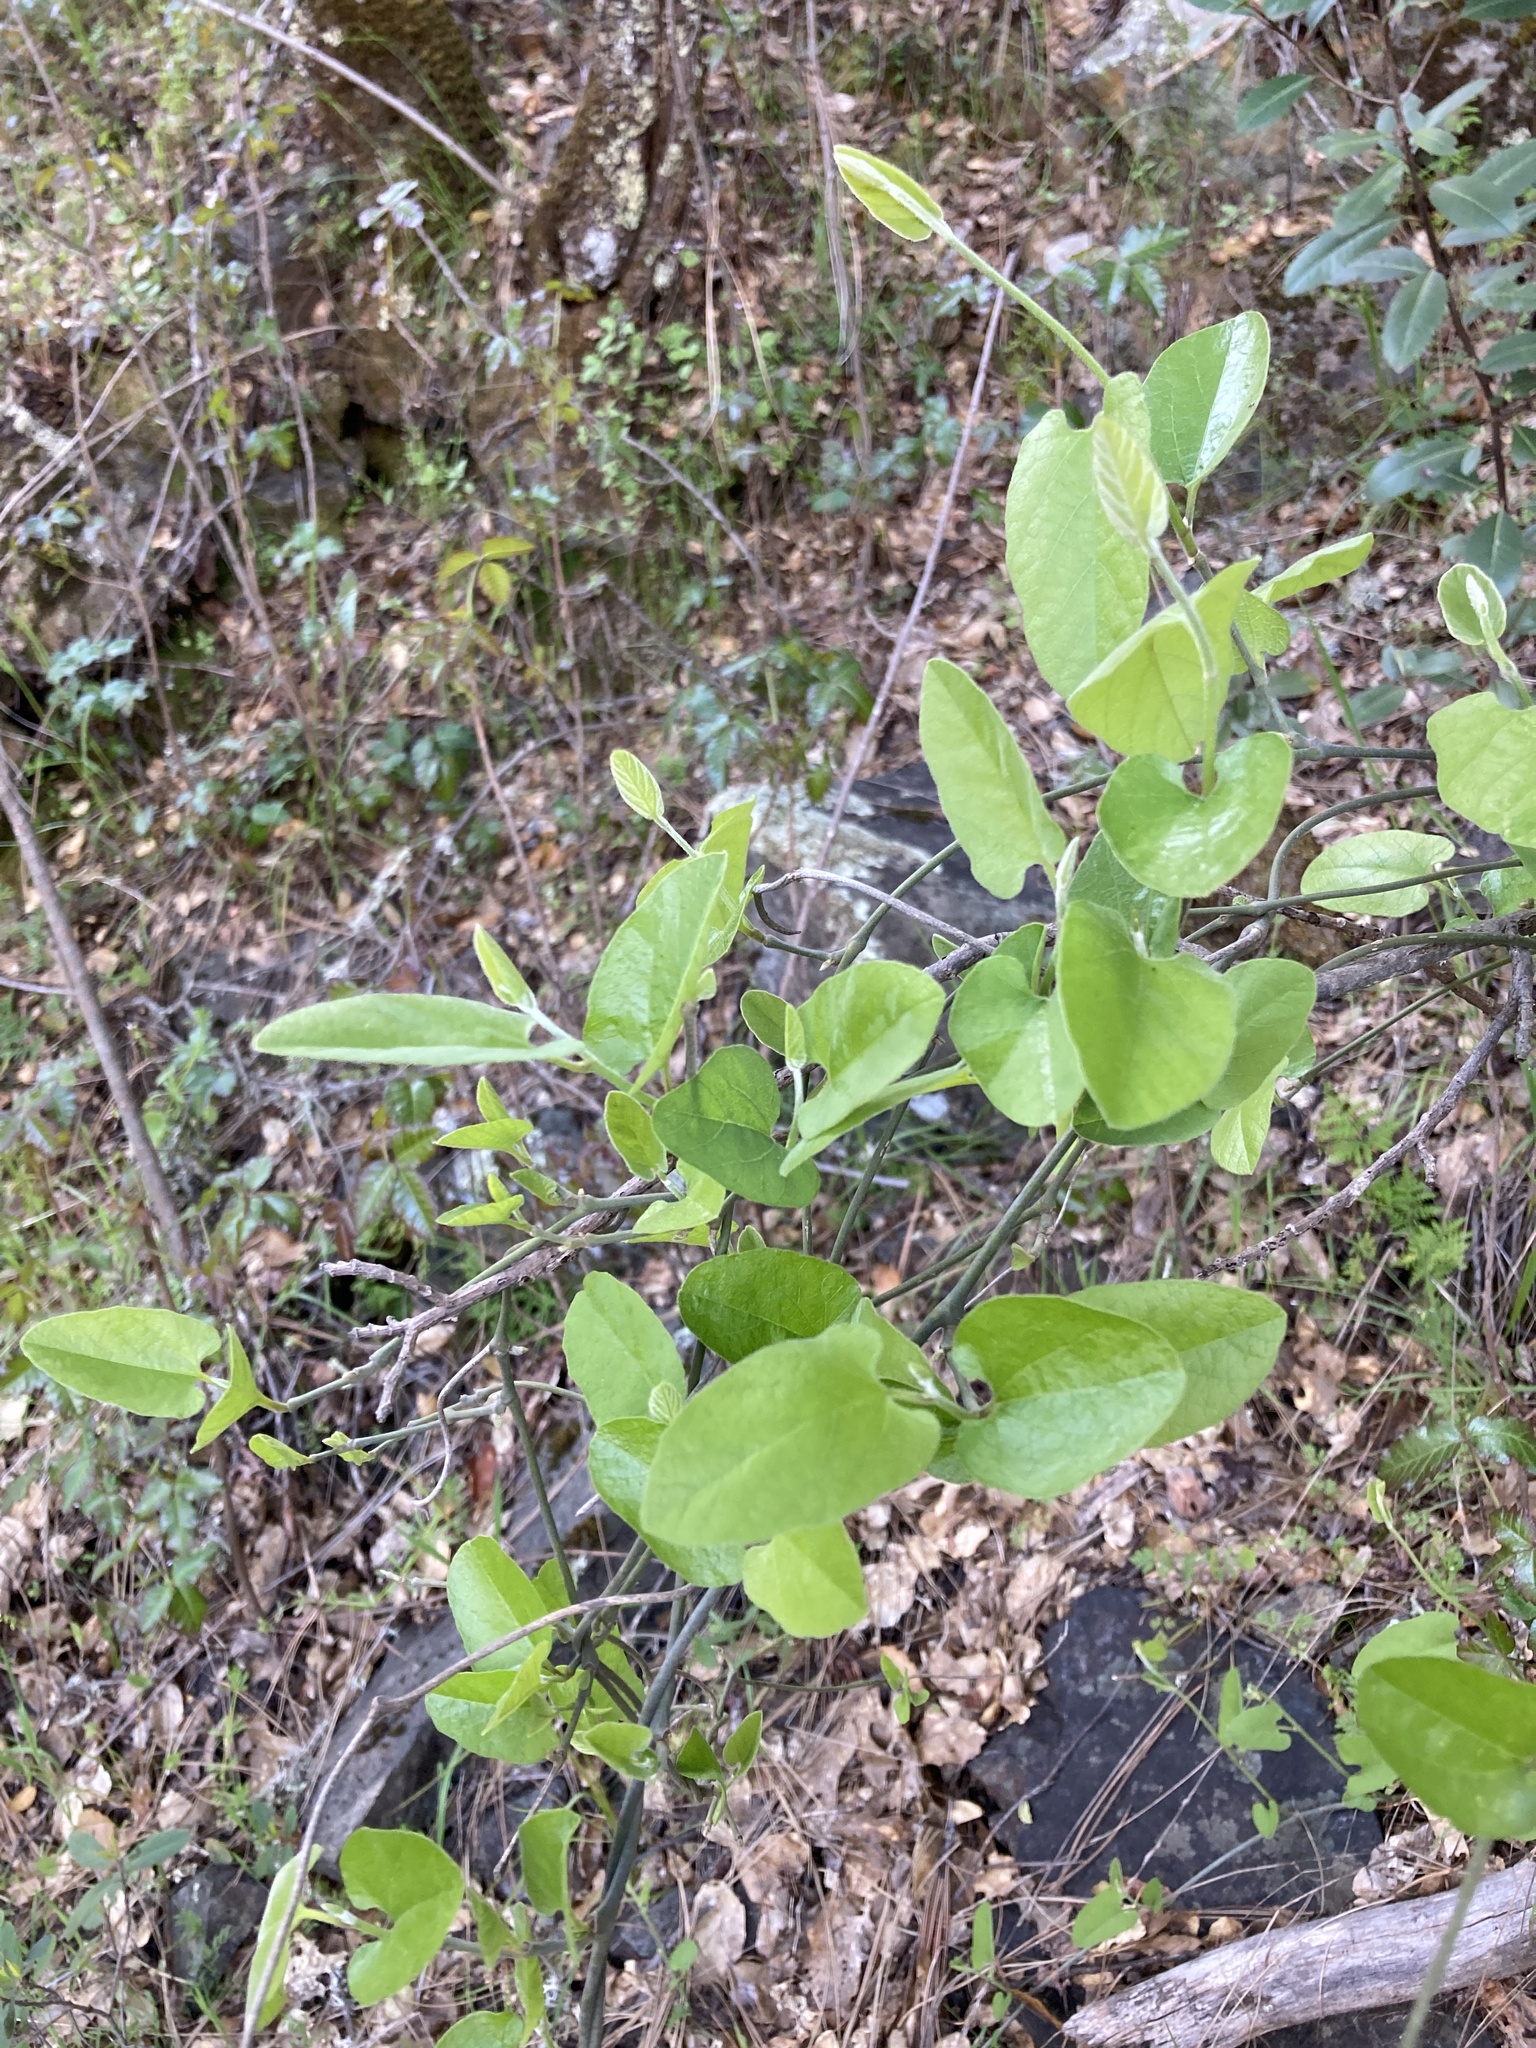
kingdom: Plantae
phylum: Tracheophyta
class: Magnoliopsida
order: Piperales
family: Aristolochiaceae
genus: Isotrema
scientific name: Isotrema californicum
